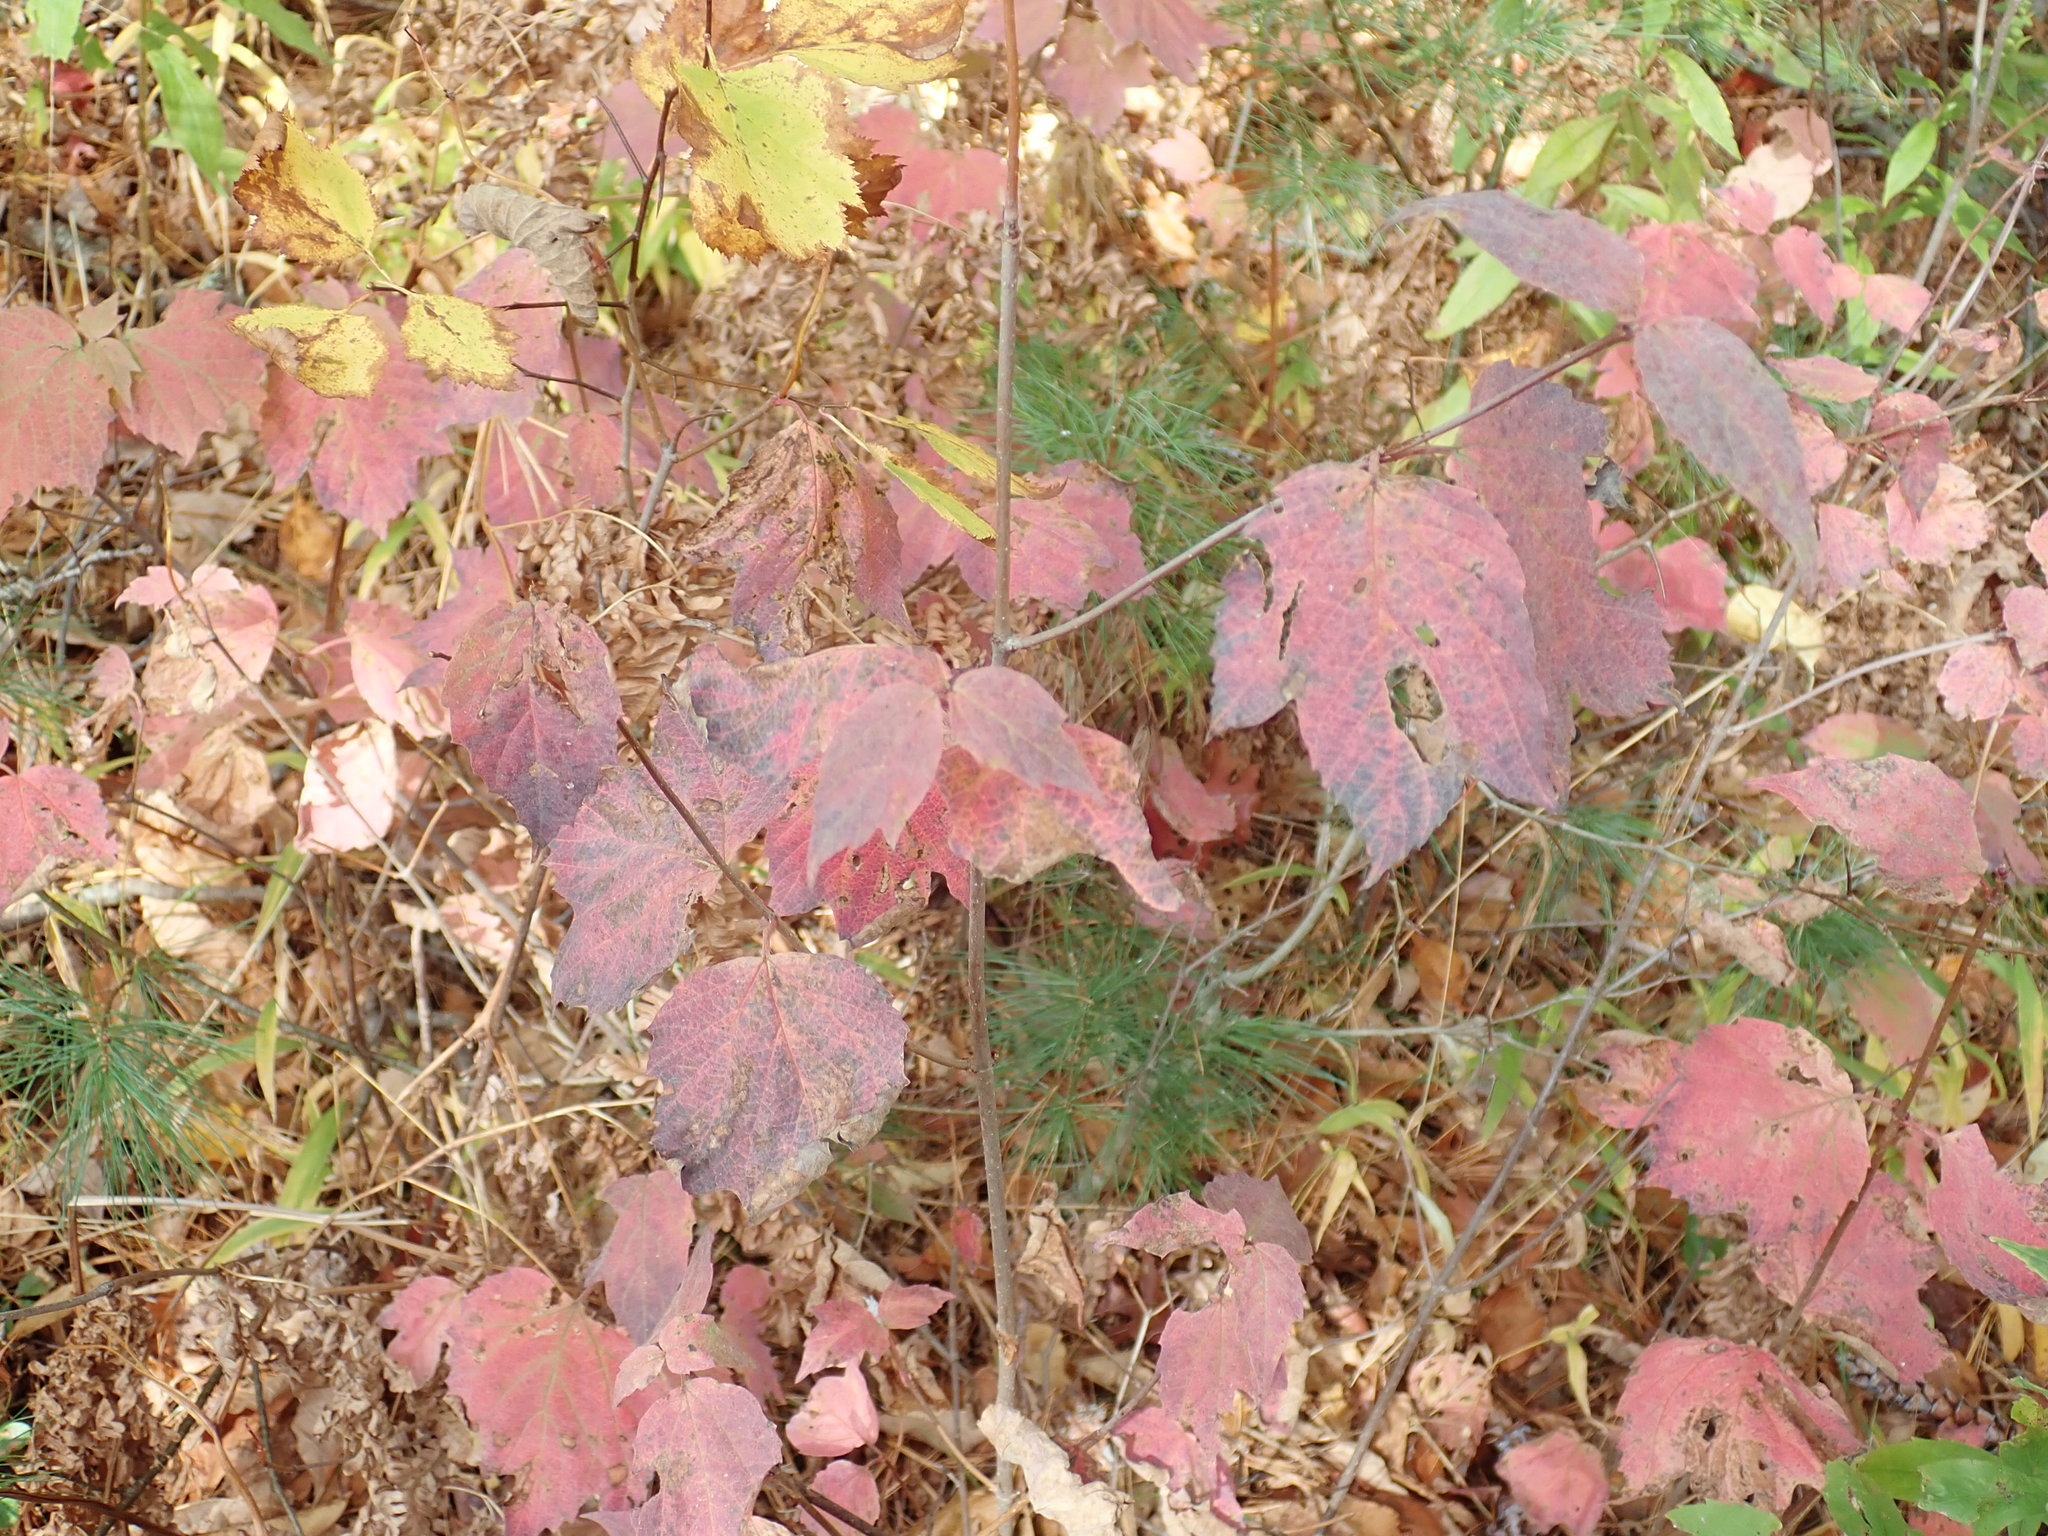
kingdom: Plantae
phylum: Tracheophyta
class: Magnoliopsida
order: Dipsacales
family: Viburnaceae
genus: Viburnum
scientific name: Viburnum acerifolium
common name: Dockmackie
